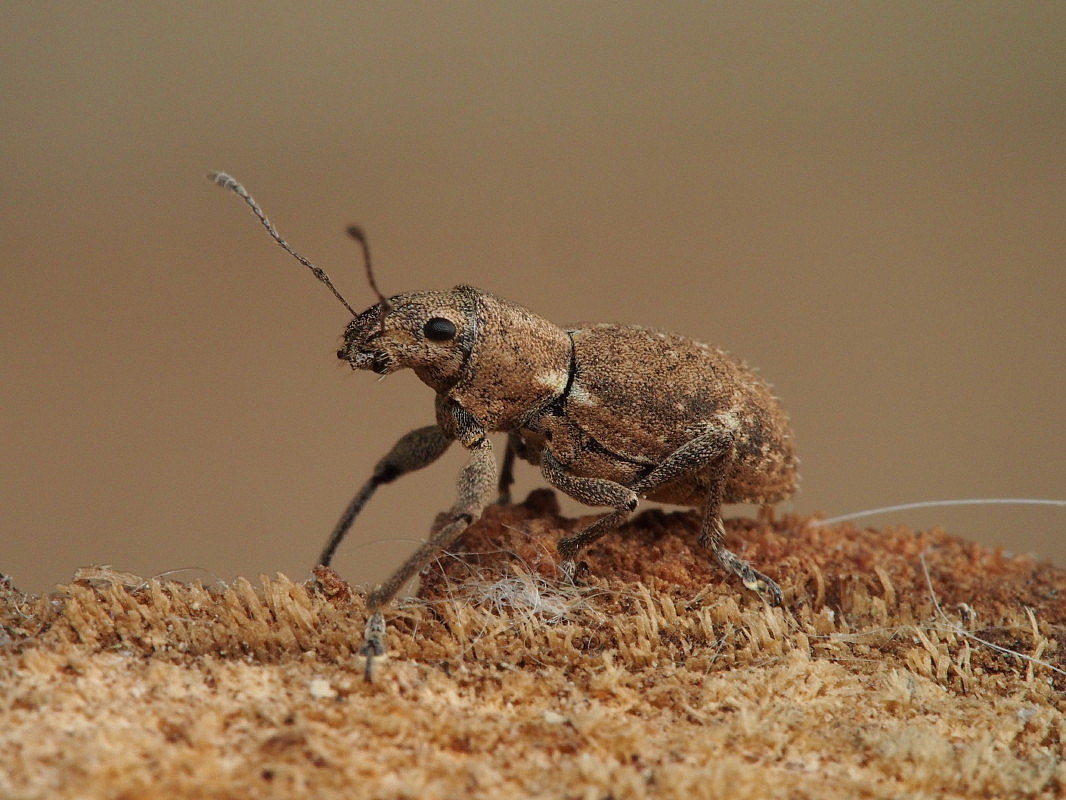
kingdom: Animalia
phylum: Arthropoda
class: Insecta
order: Coleoptera
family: Curculionidae
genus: Naupactus
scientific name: Naupactus cervinus
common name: Fuller rose beetle
